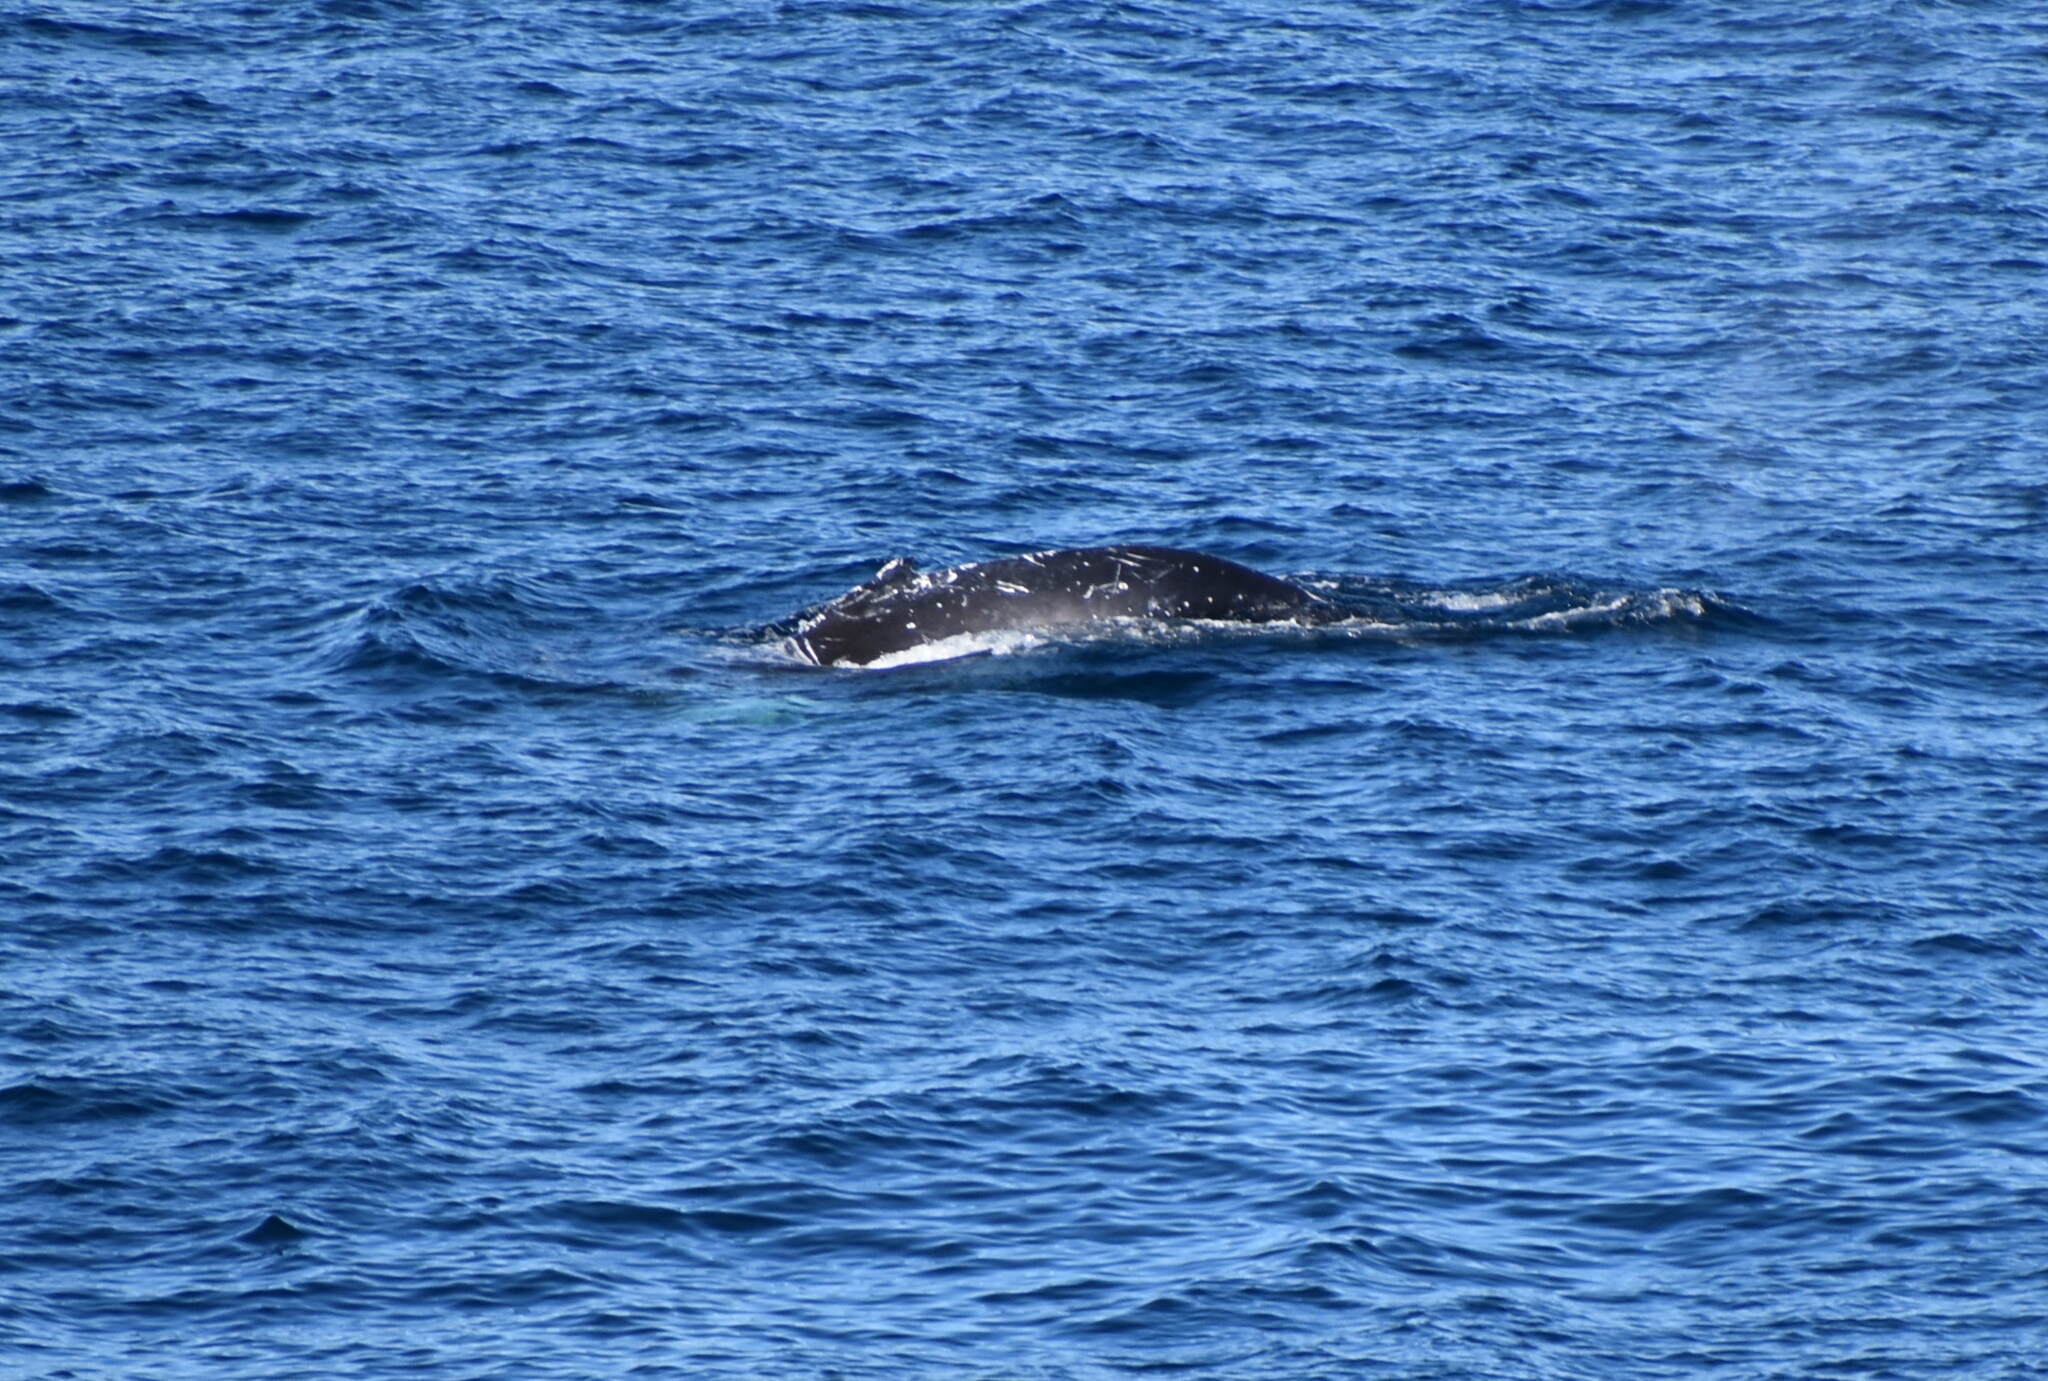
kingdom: Animalia
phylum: Chordata
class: Mammalia
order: Cetacea
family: Balaenopteridae
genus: Megaptera
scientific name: Megaptera novaeangliae
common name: Humpback whale
